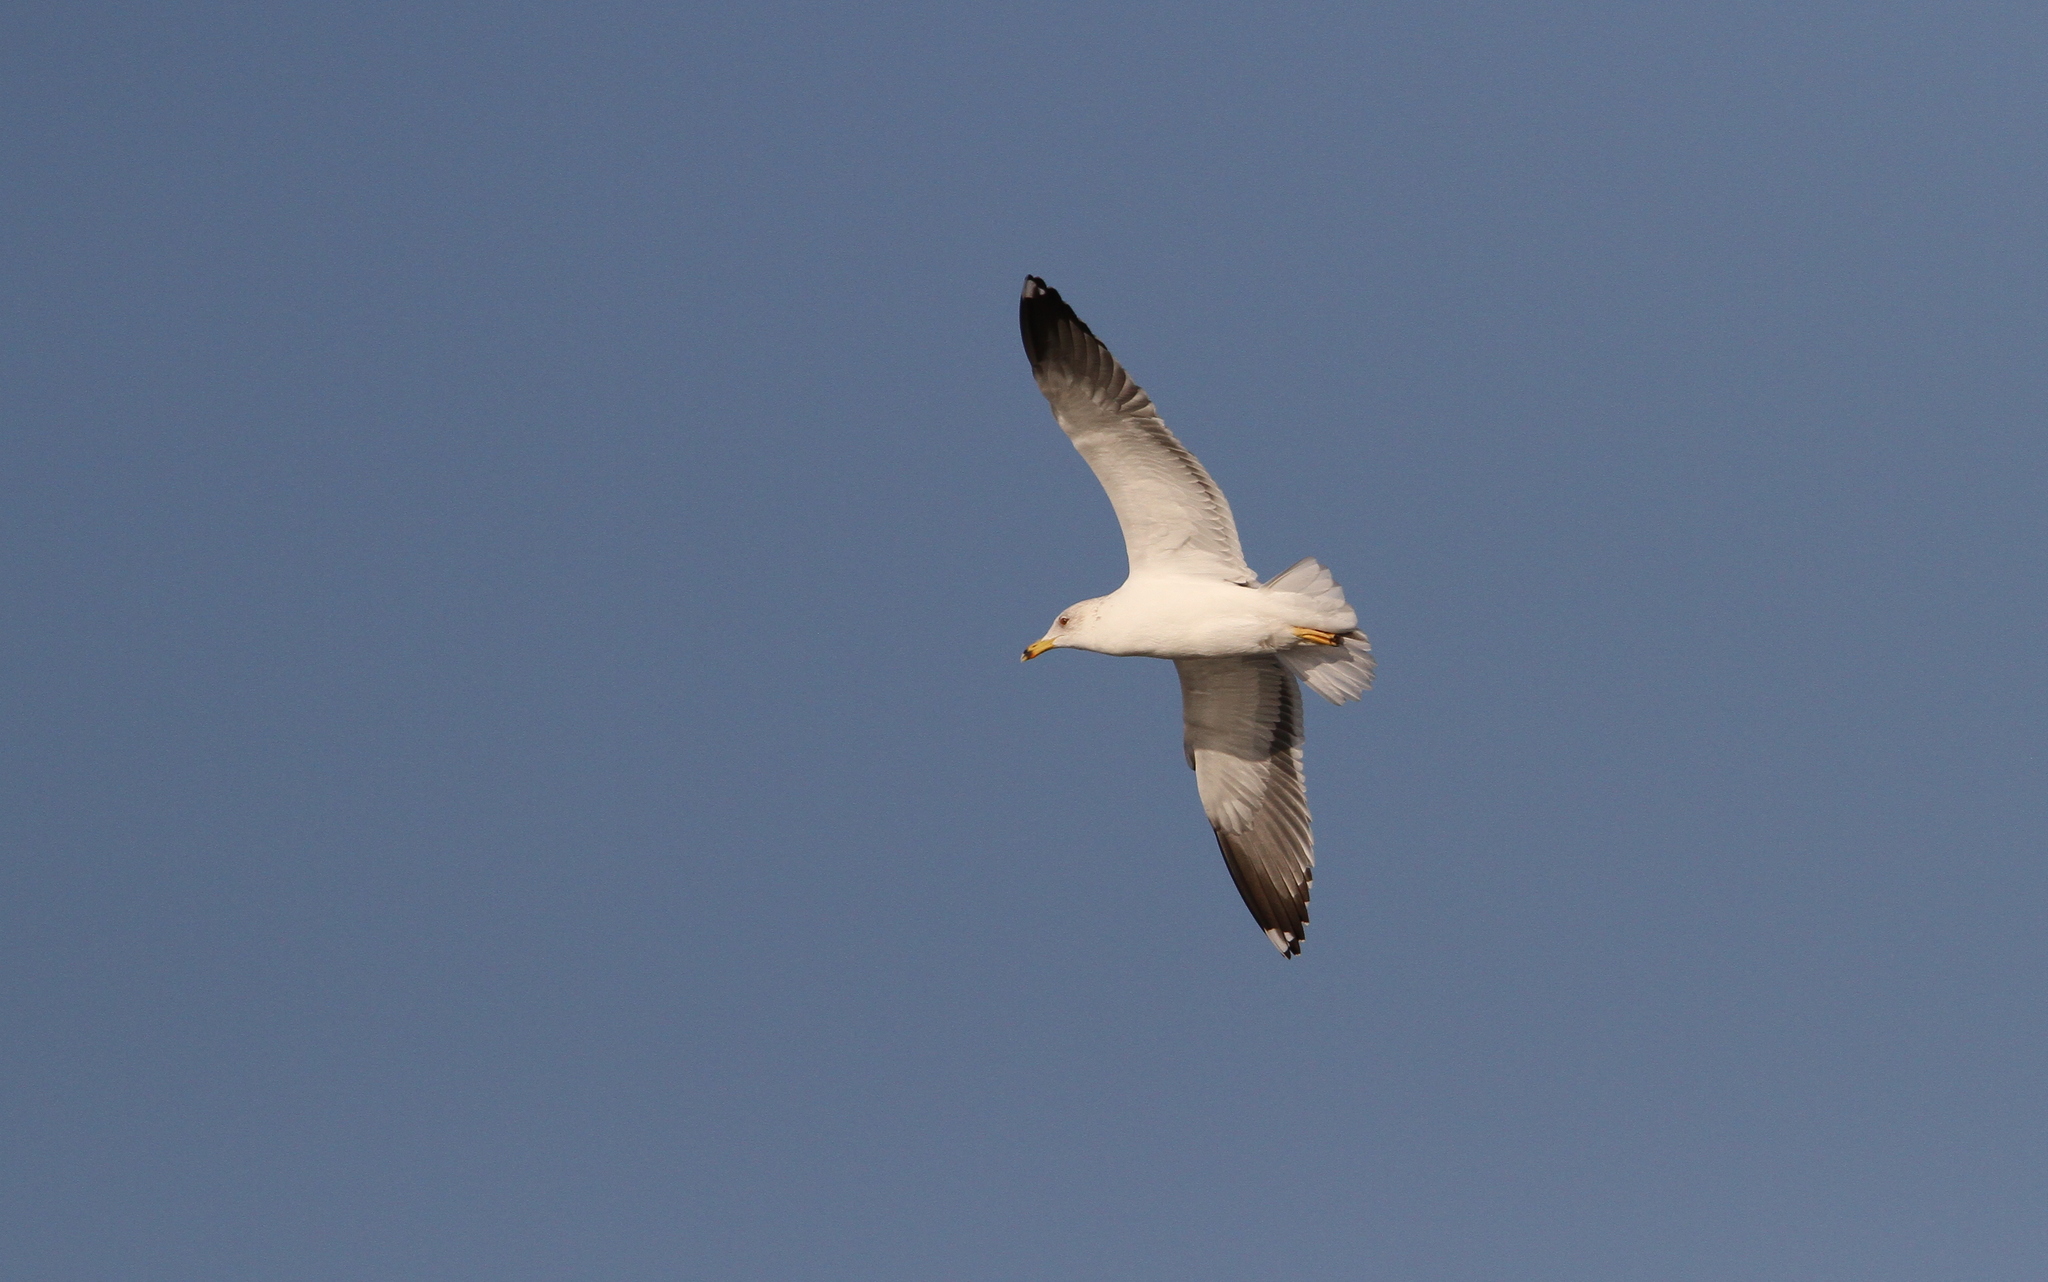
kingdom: Animalia
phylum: Chordata
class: Aves
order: Charadriiformes
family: Laridae
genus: Larus
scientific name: Larus fuscus
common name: Lesser black-backed gull
